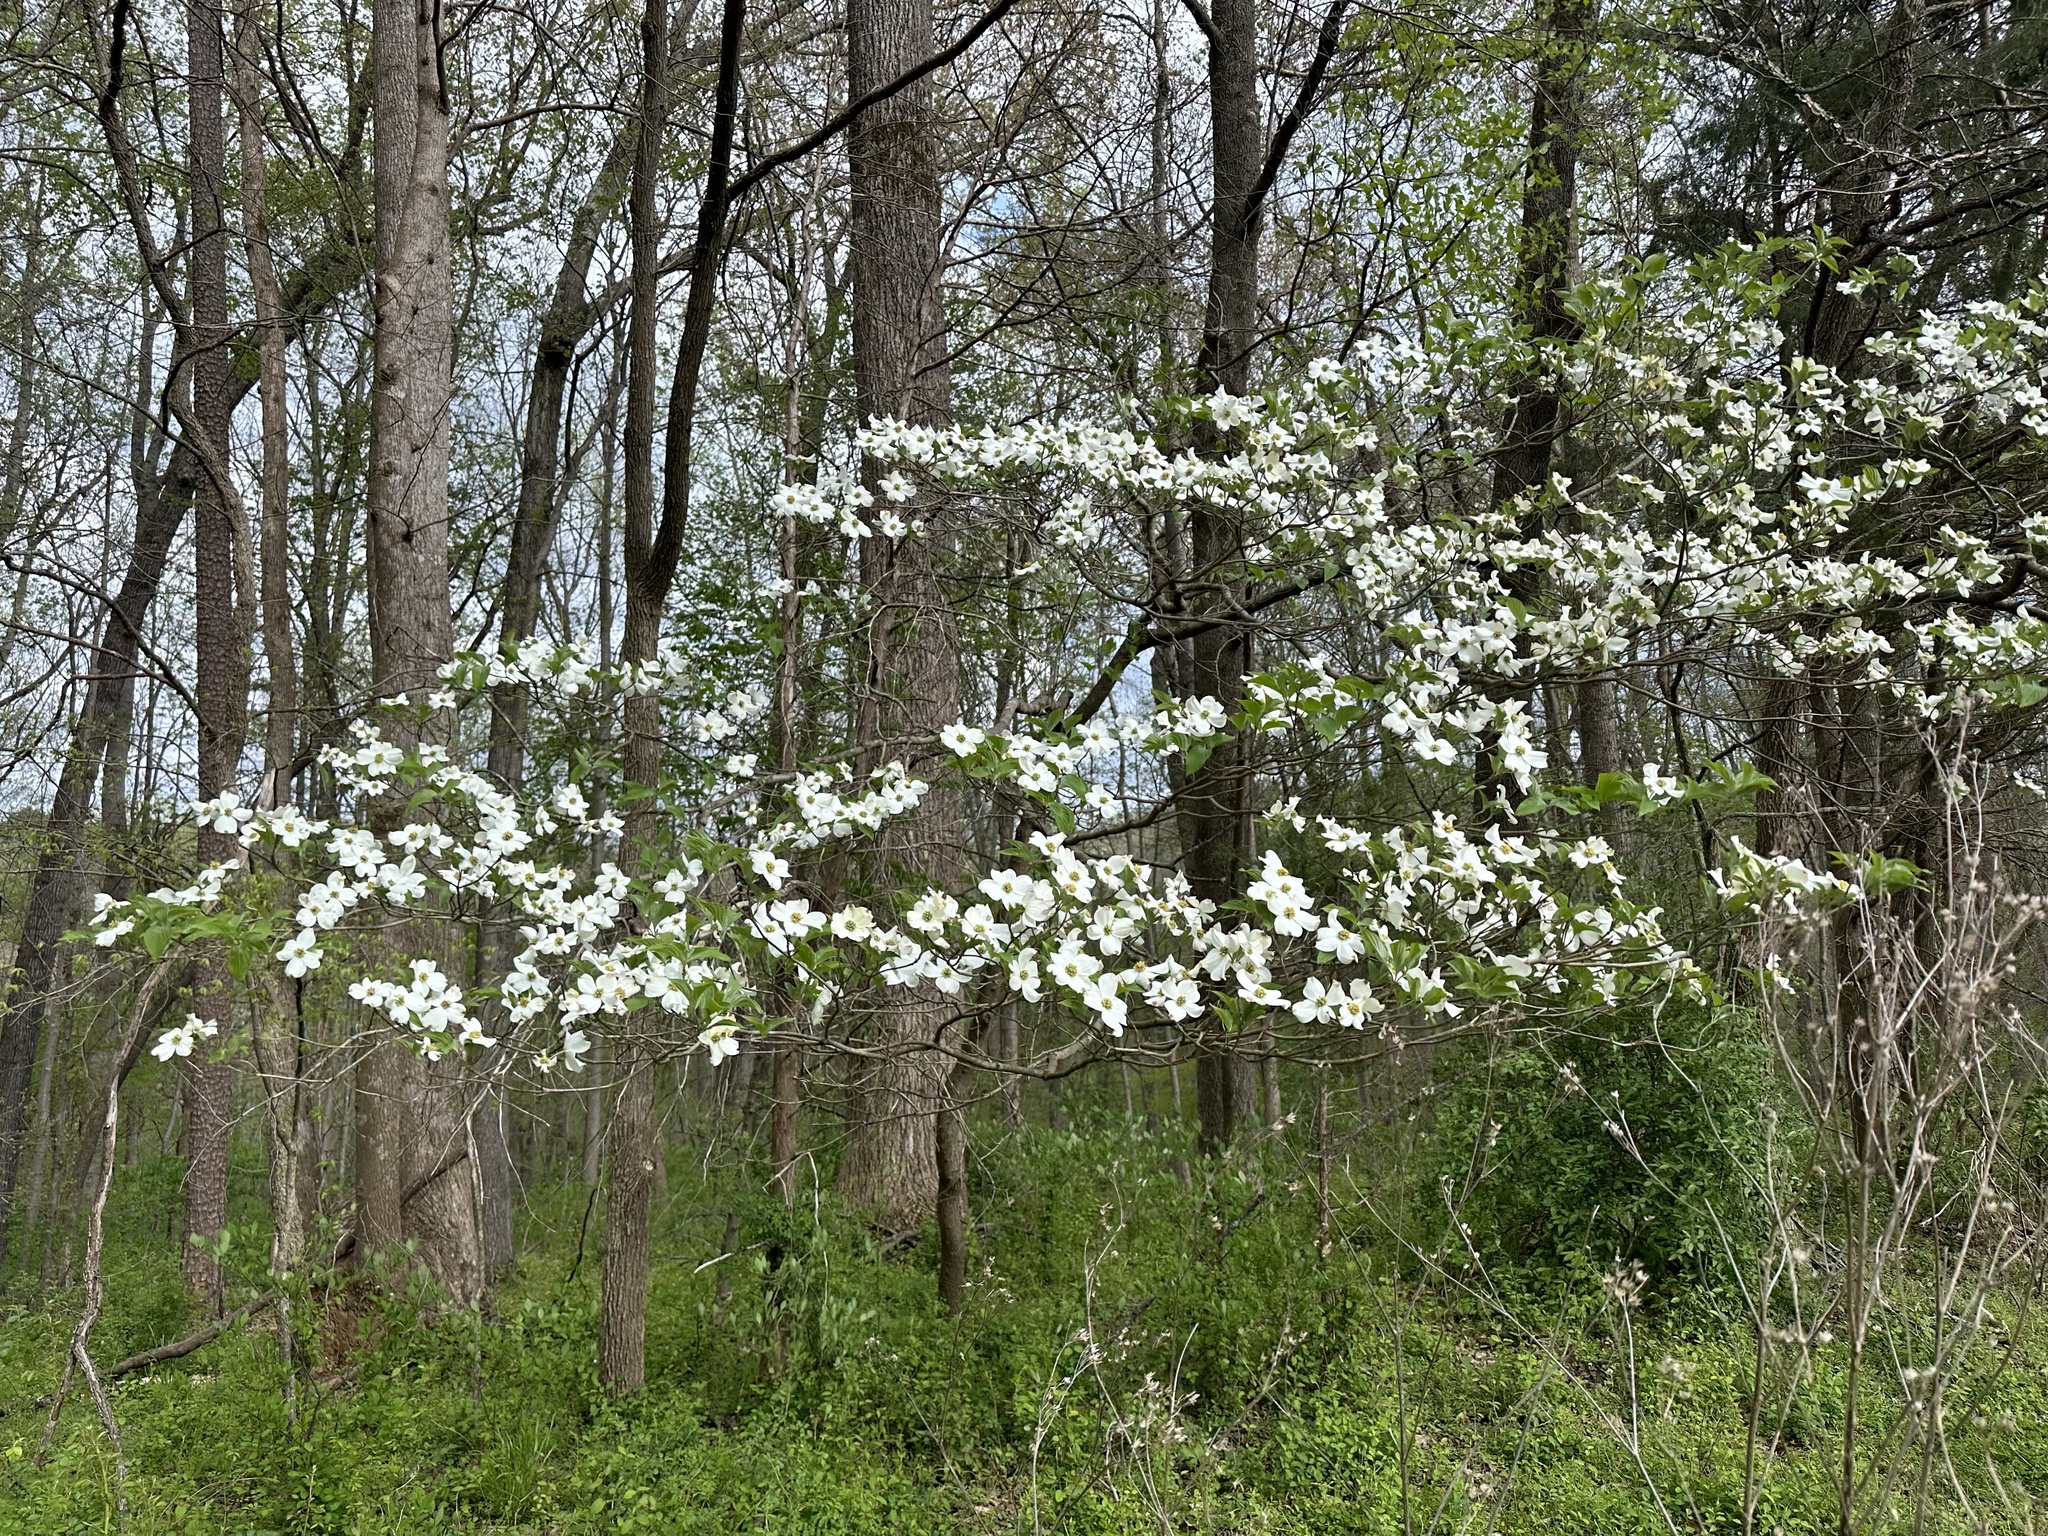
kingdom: Plantae
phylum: Tracheophyta
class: Magnoliopsida
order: Cornales
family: Cornaceae
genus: Cornus
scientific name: Cornus florida
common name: Flowering dogwood
